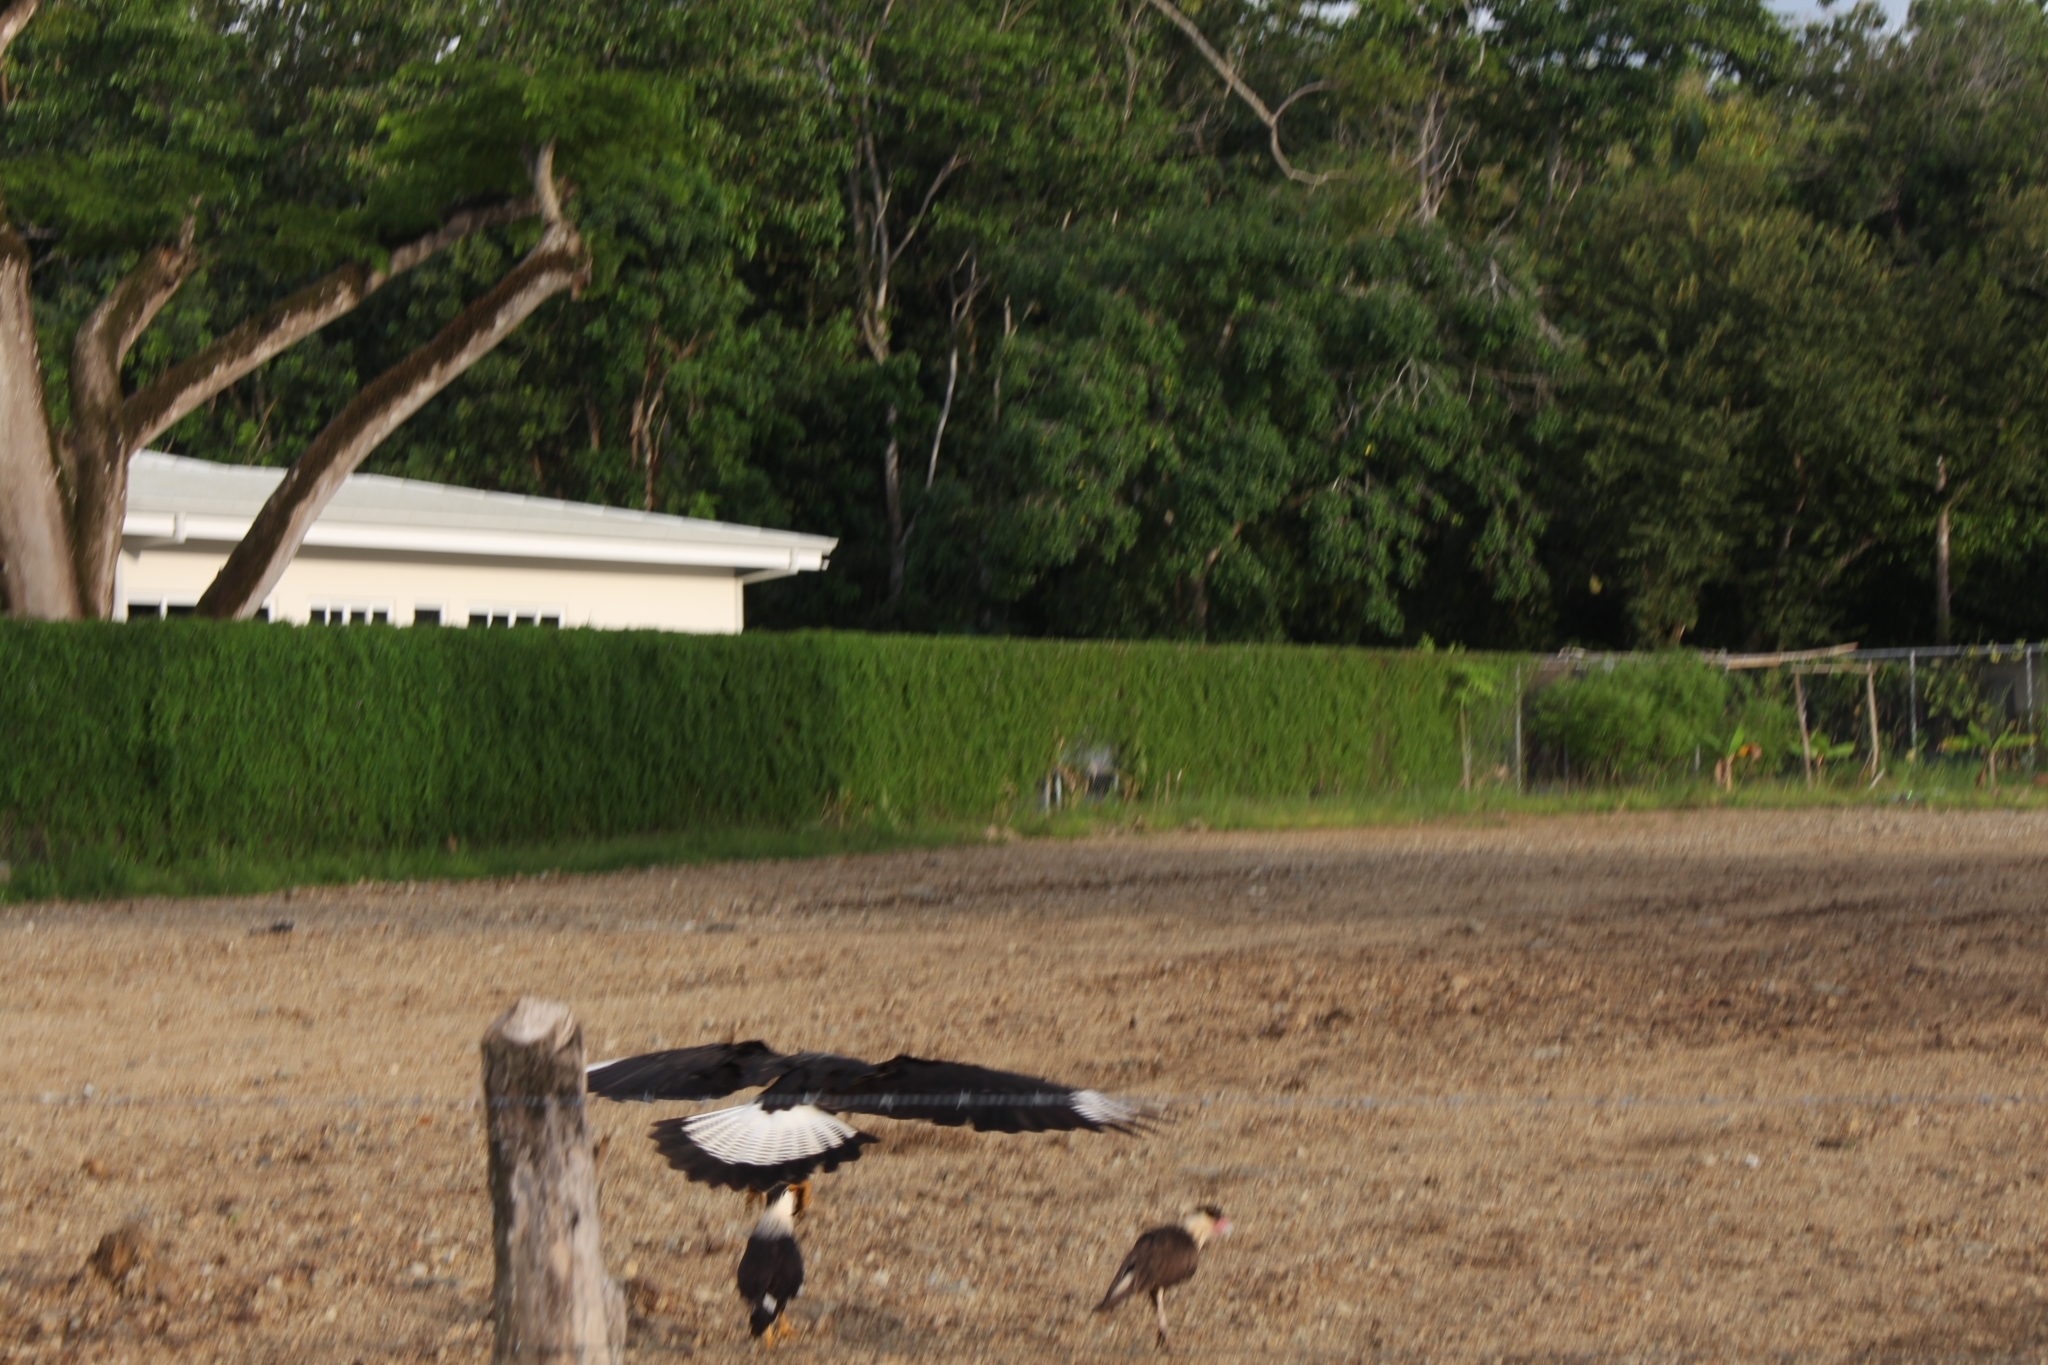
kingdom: Animalia
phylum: Chordata
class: Aves
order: Falconiformes
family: Falconidae
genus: Caracara
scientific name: Caracara plancus
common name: Southern caracara
